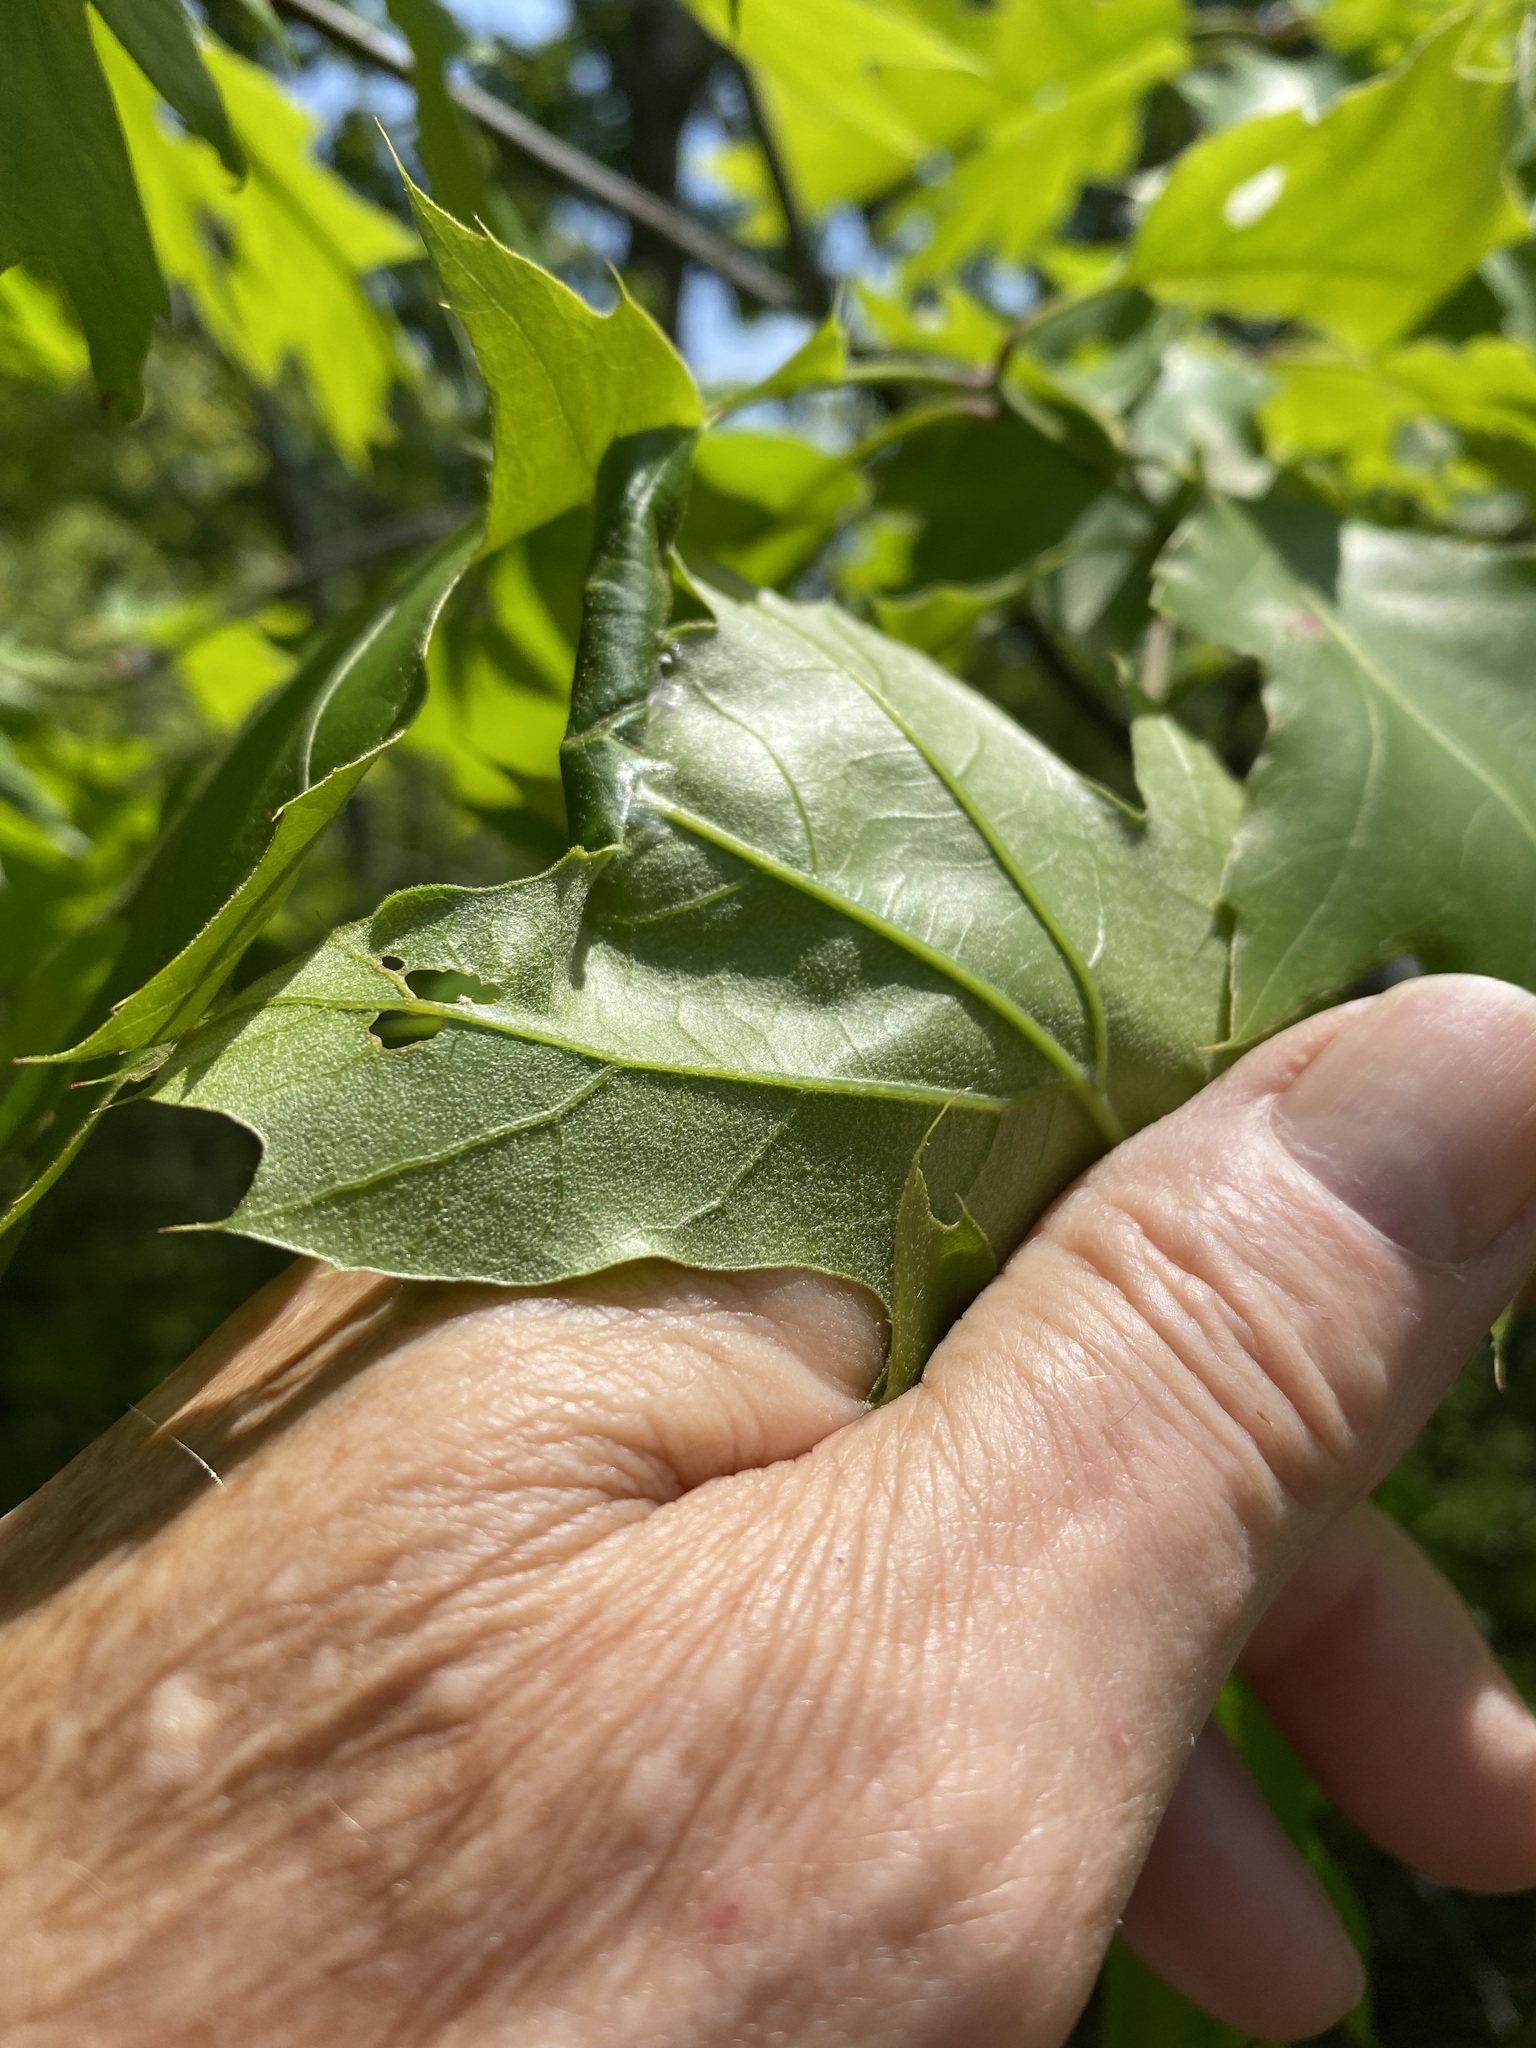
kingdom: Plantae
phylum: Tracheophyta
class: Magnoliopsida
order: Fagales
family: Fagaceae
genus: Quercus
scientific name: Quercus rubra
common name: Red oak
